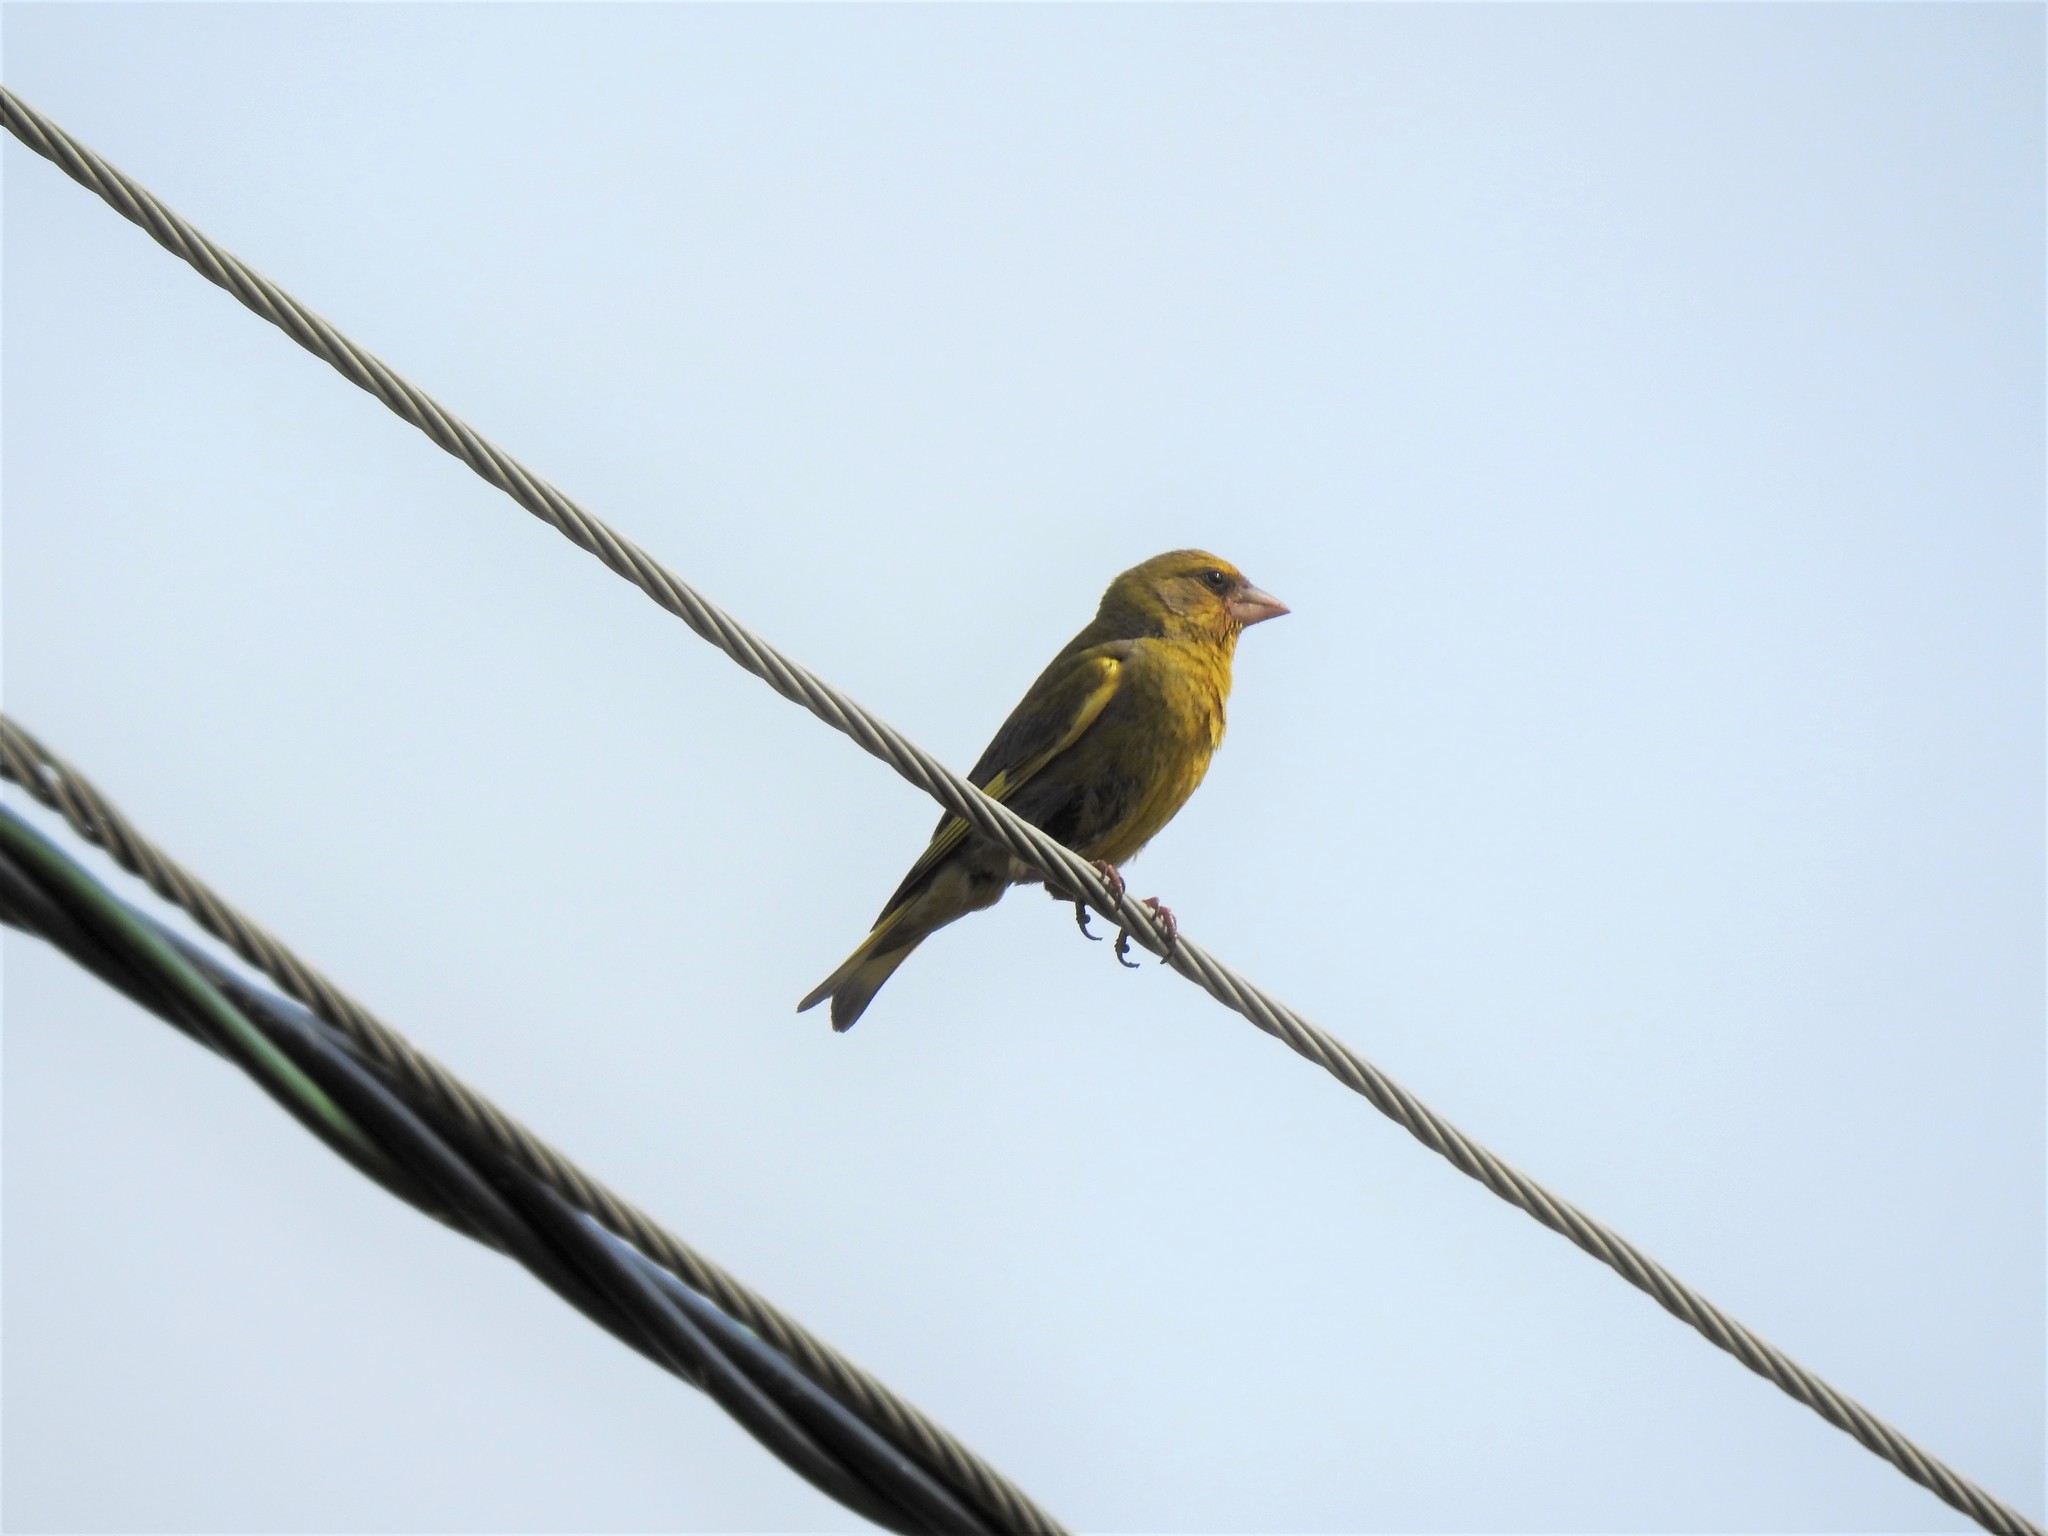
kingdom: Plantae
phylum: Tracheophyta
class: Liliopsida
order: Poales
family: Poaceae
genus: Chloris
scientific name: Chloris chloris
